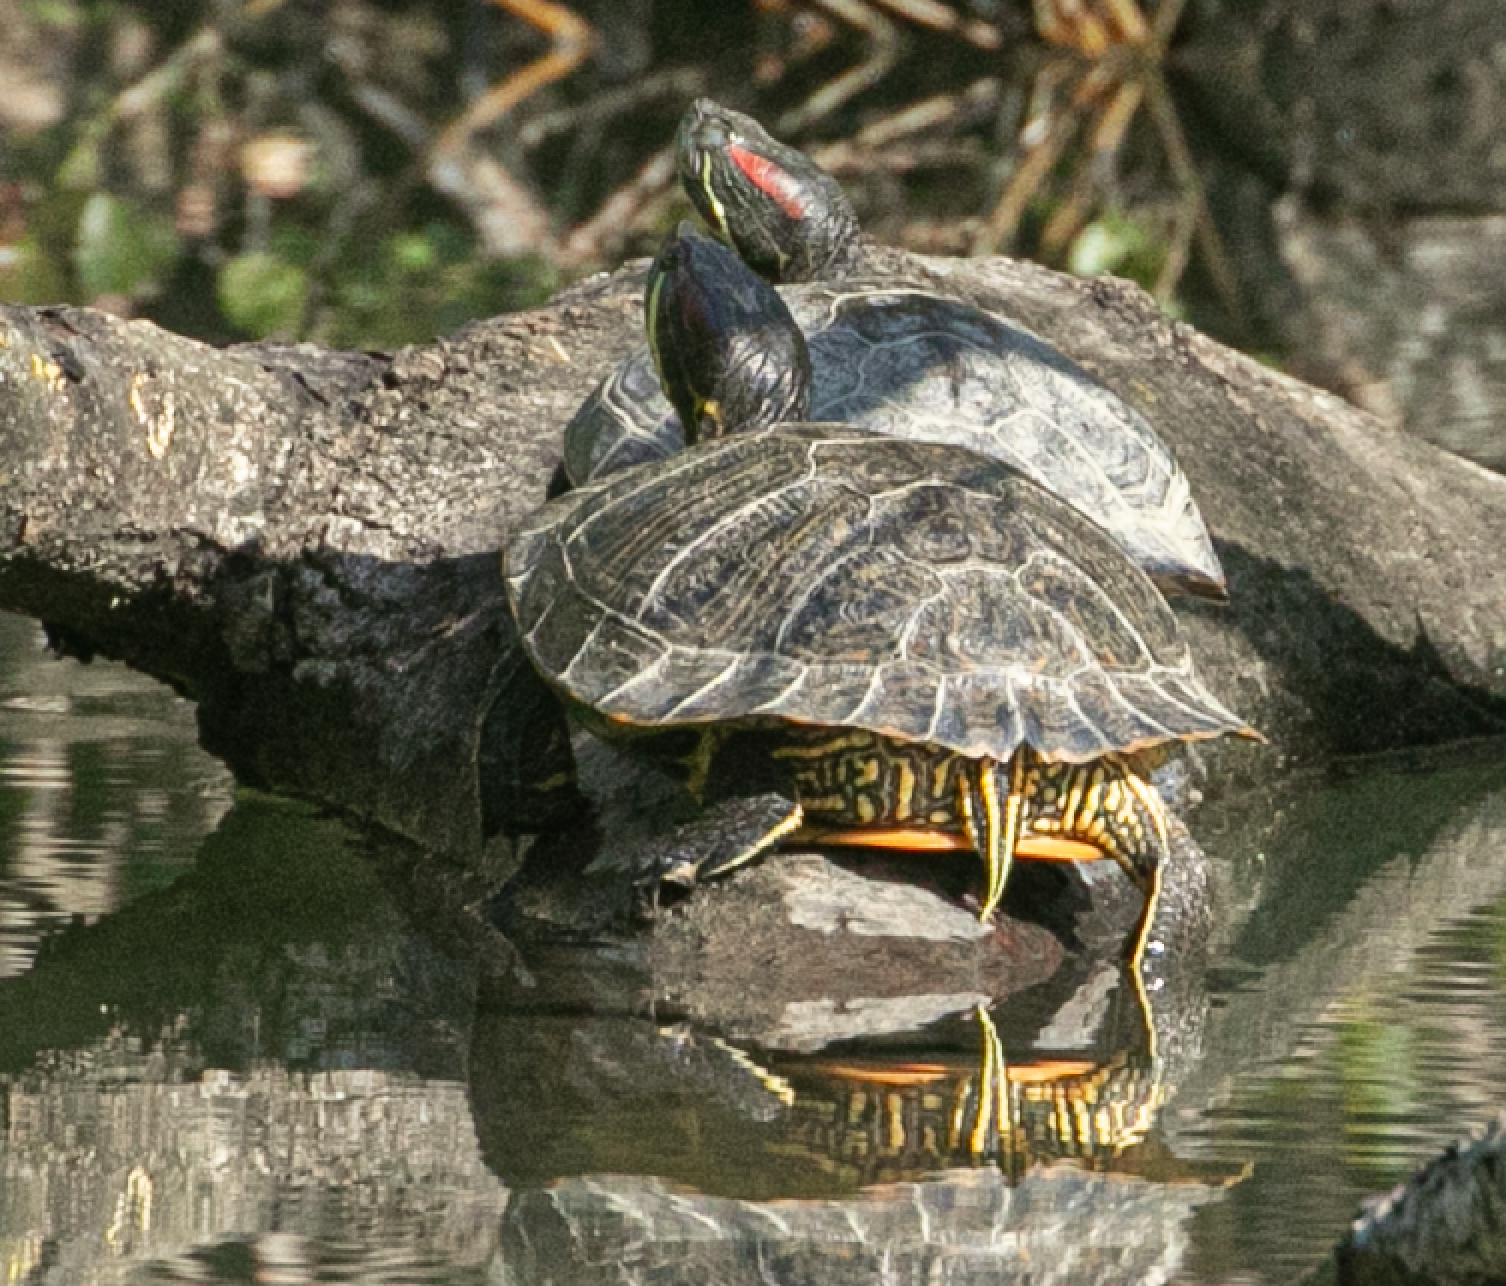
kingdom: Animalia
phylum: Chordata
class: Testudines
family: Emydidae
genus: Trachemys
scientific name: Trachemys scripta
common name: Slider
